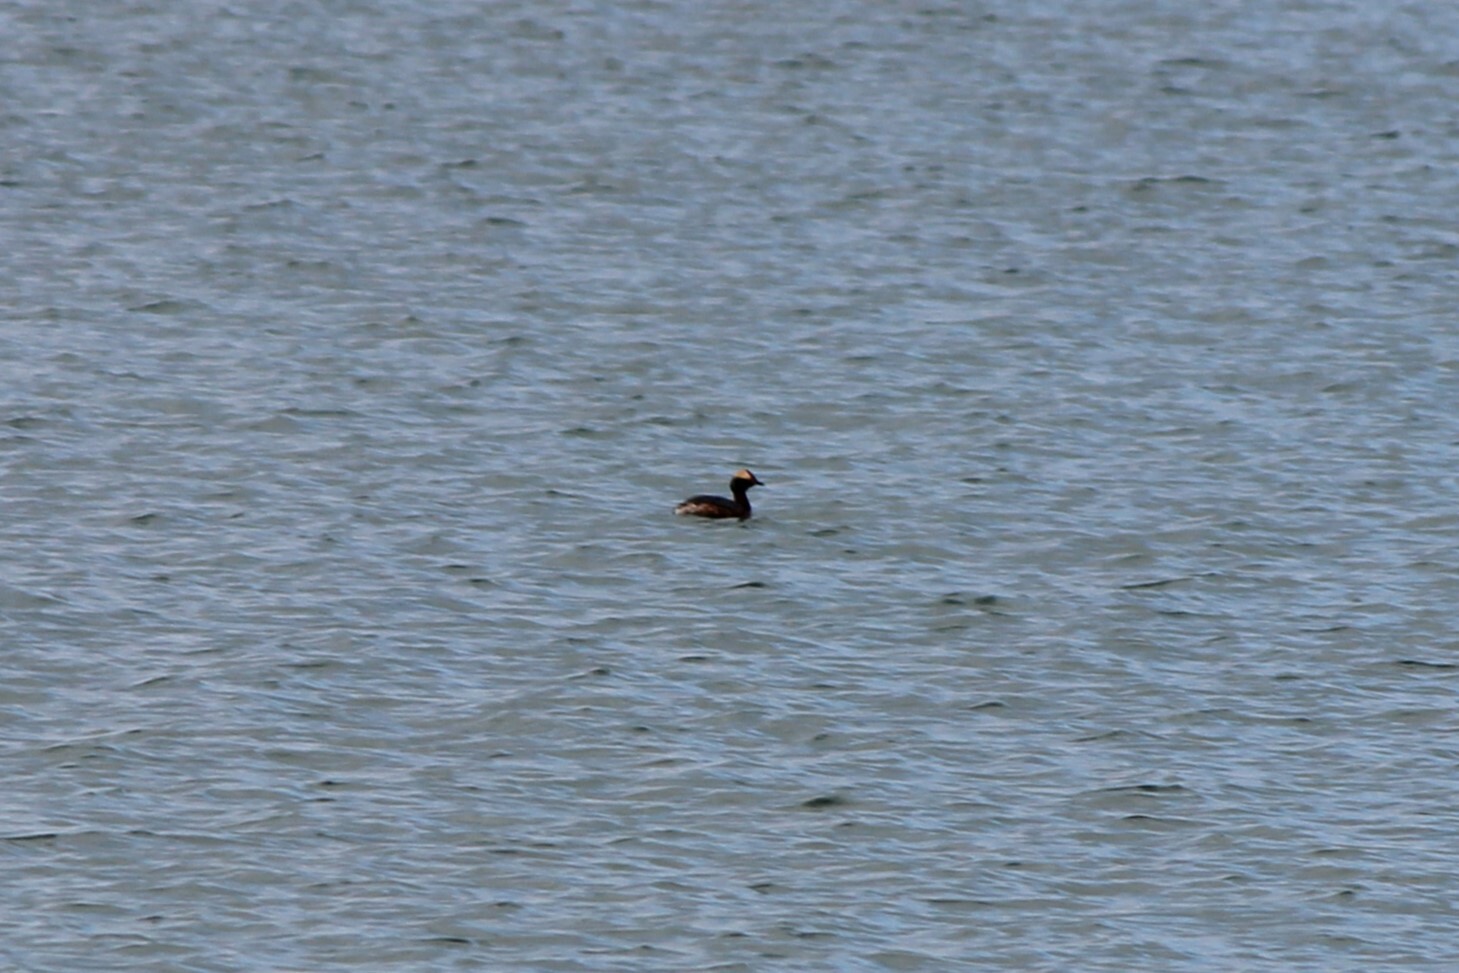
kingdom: Animalia
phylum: Chordata
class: Aves
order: Podicipediformes
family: Podicipedidae
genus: Podiceps
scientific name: Podiceps auritus
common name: Horned grebe
